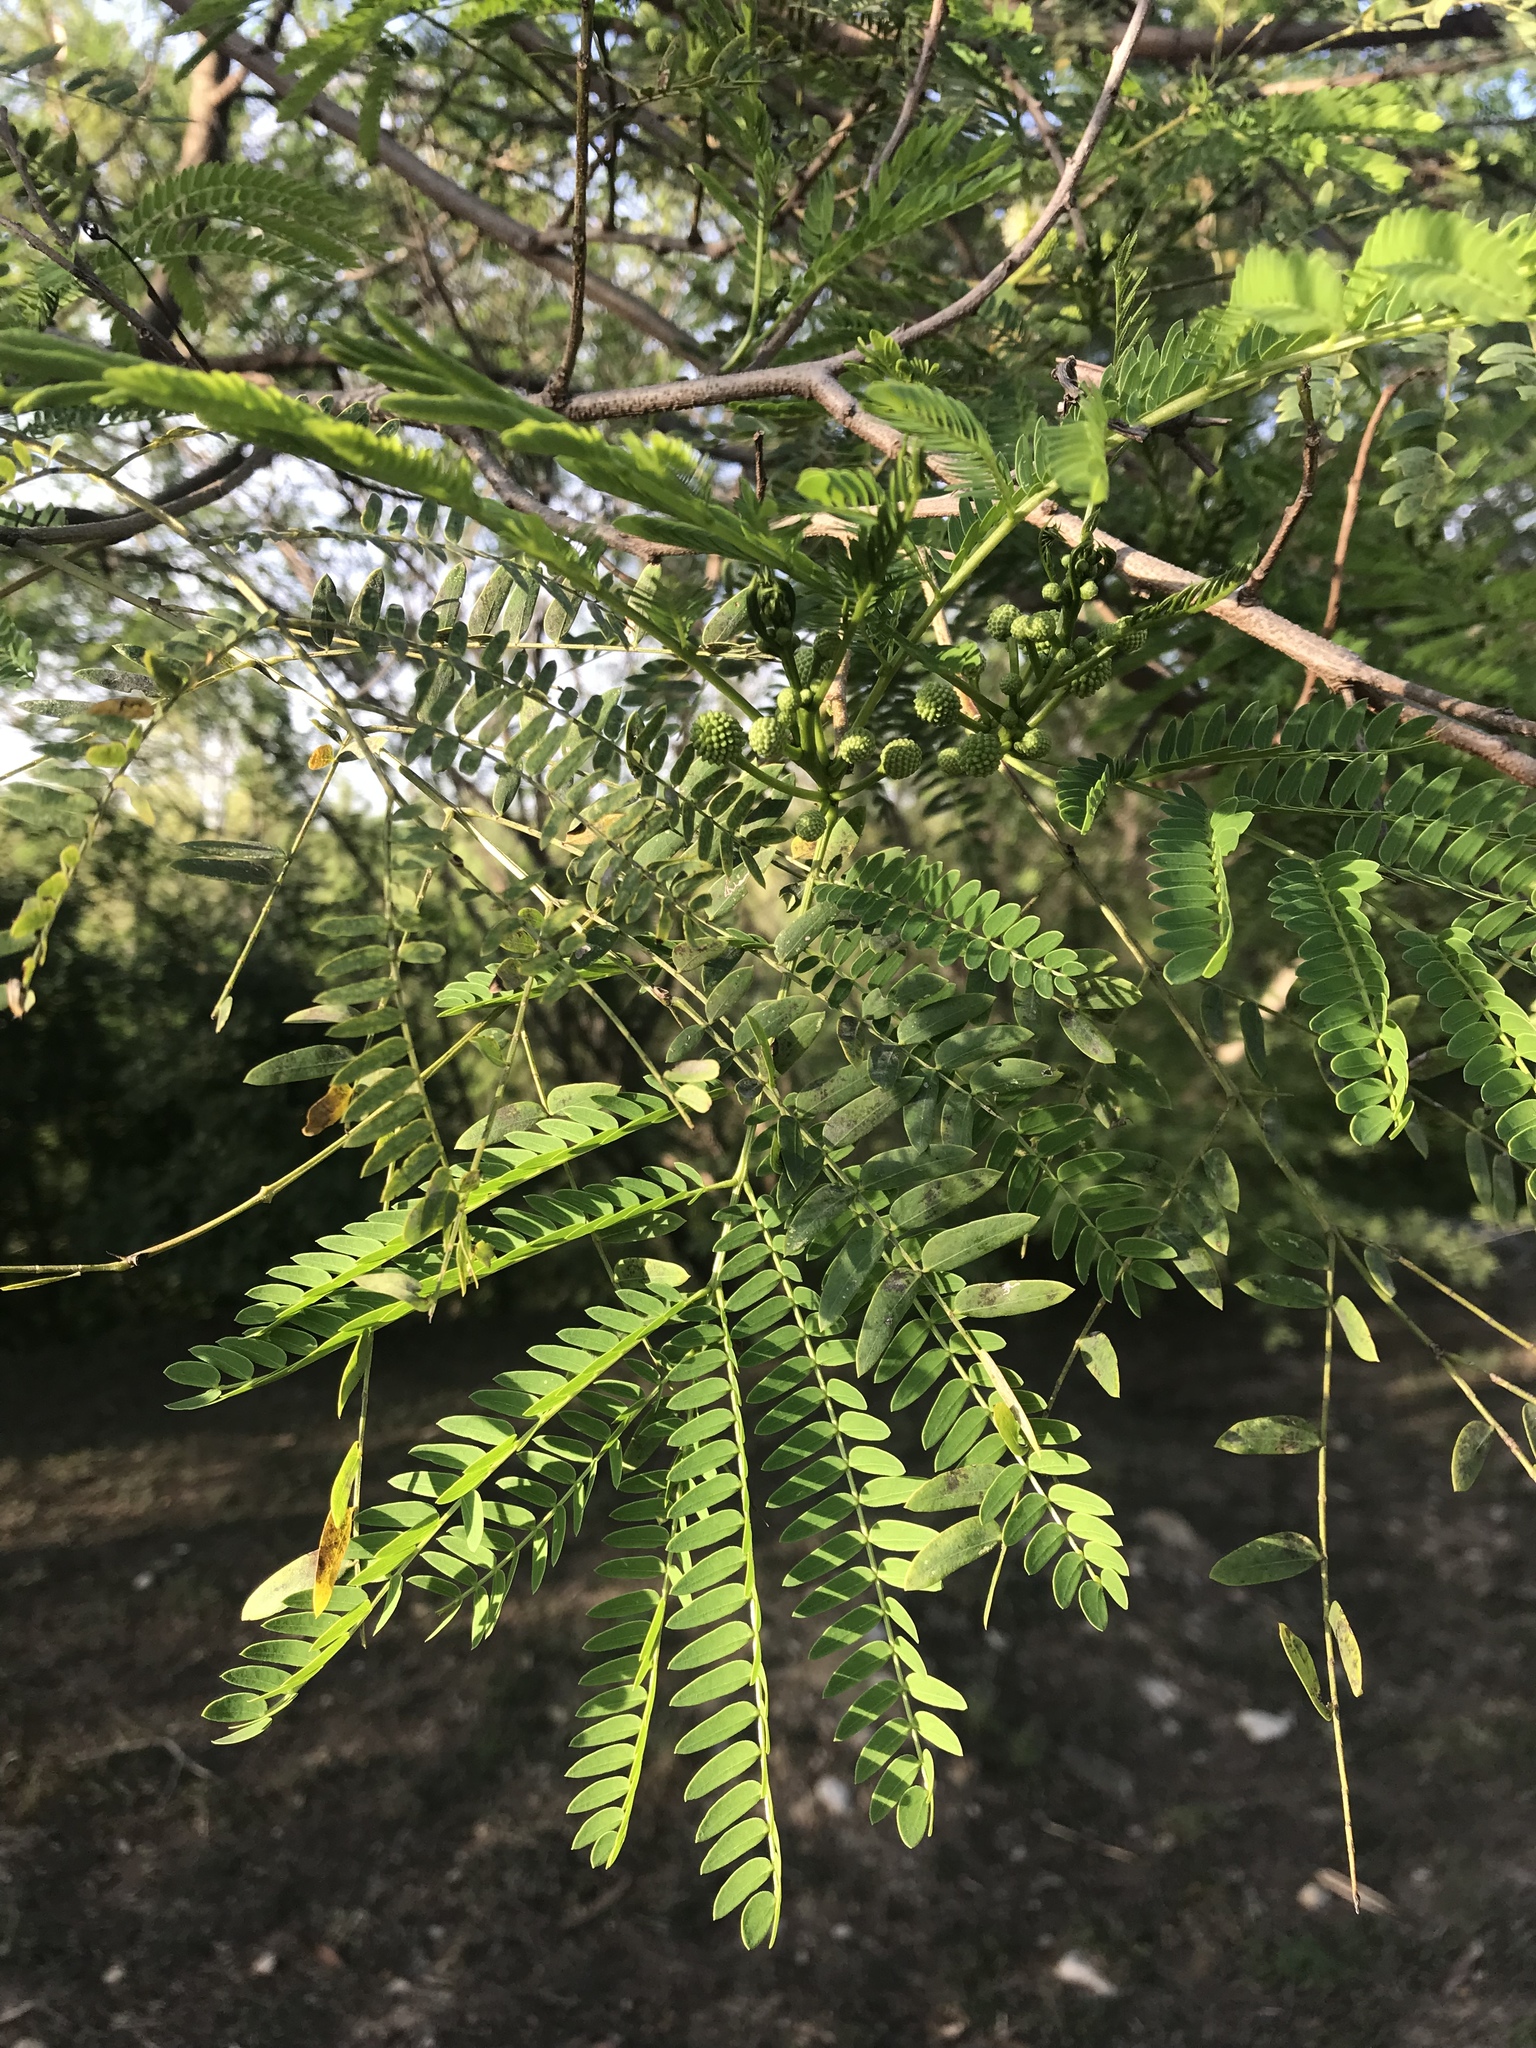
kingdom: Plantae
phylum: Tracheophyta
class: Magnoliopsida
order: Fabales
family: Fabaceae
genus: Leucaena
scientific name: Leucaena leucocephala
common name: White leadtree
